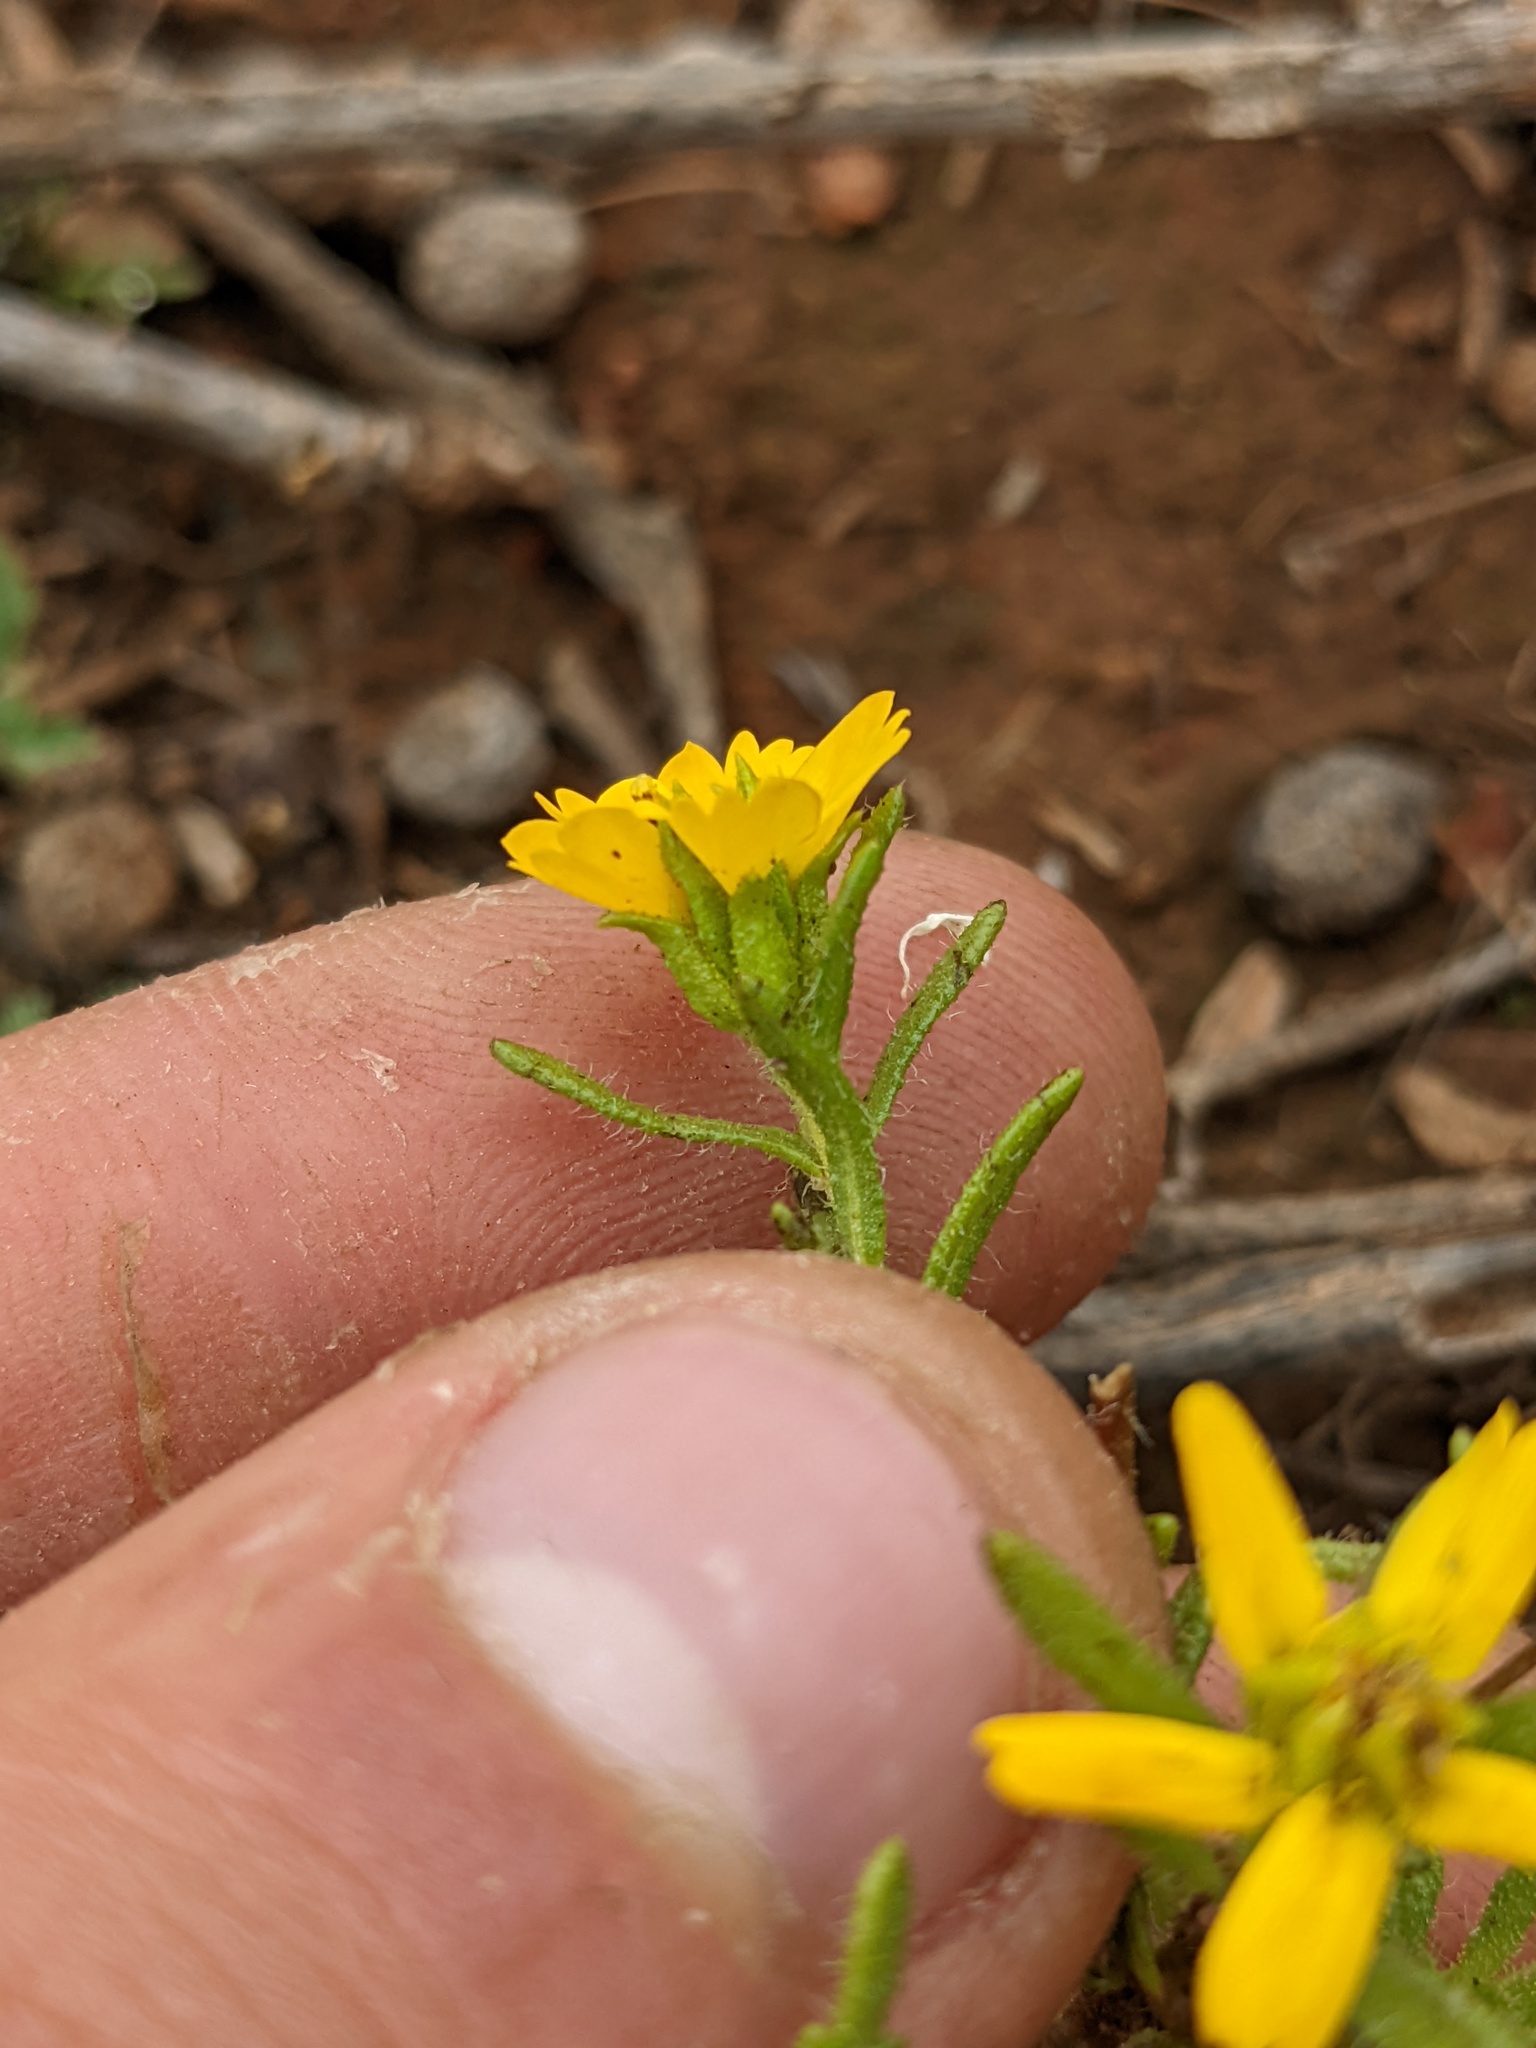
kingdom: Plantae
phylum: Tracheophyta
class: Magnoliopsida
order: Asterales
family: Asteraceae
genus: Deinandra
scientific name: Deinandra fasciculata
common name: Clustered tarweed
